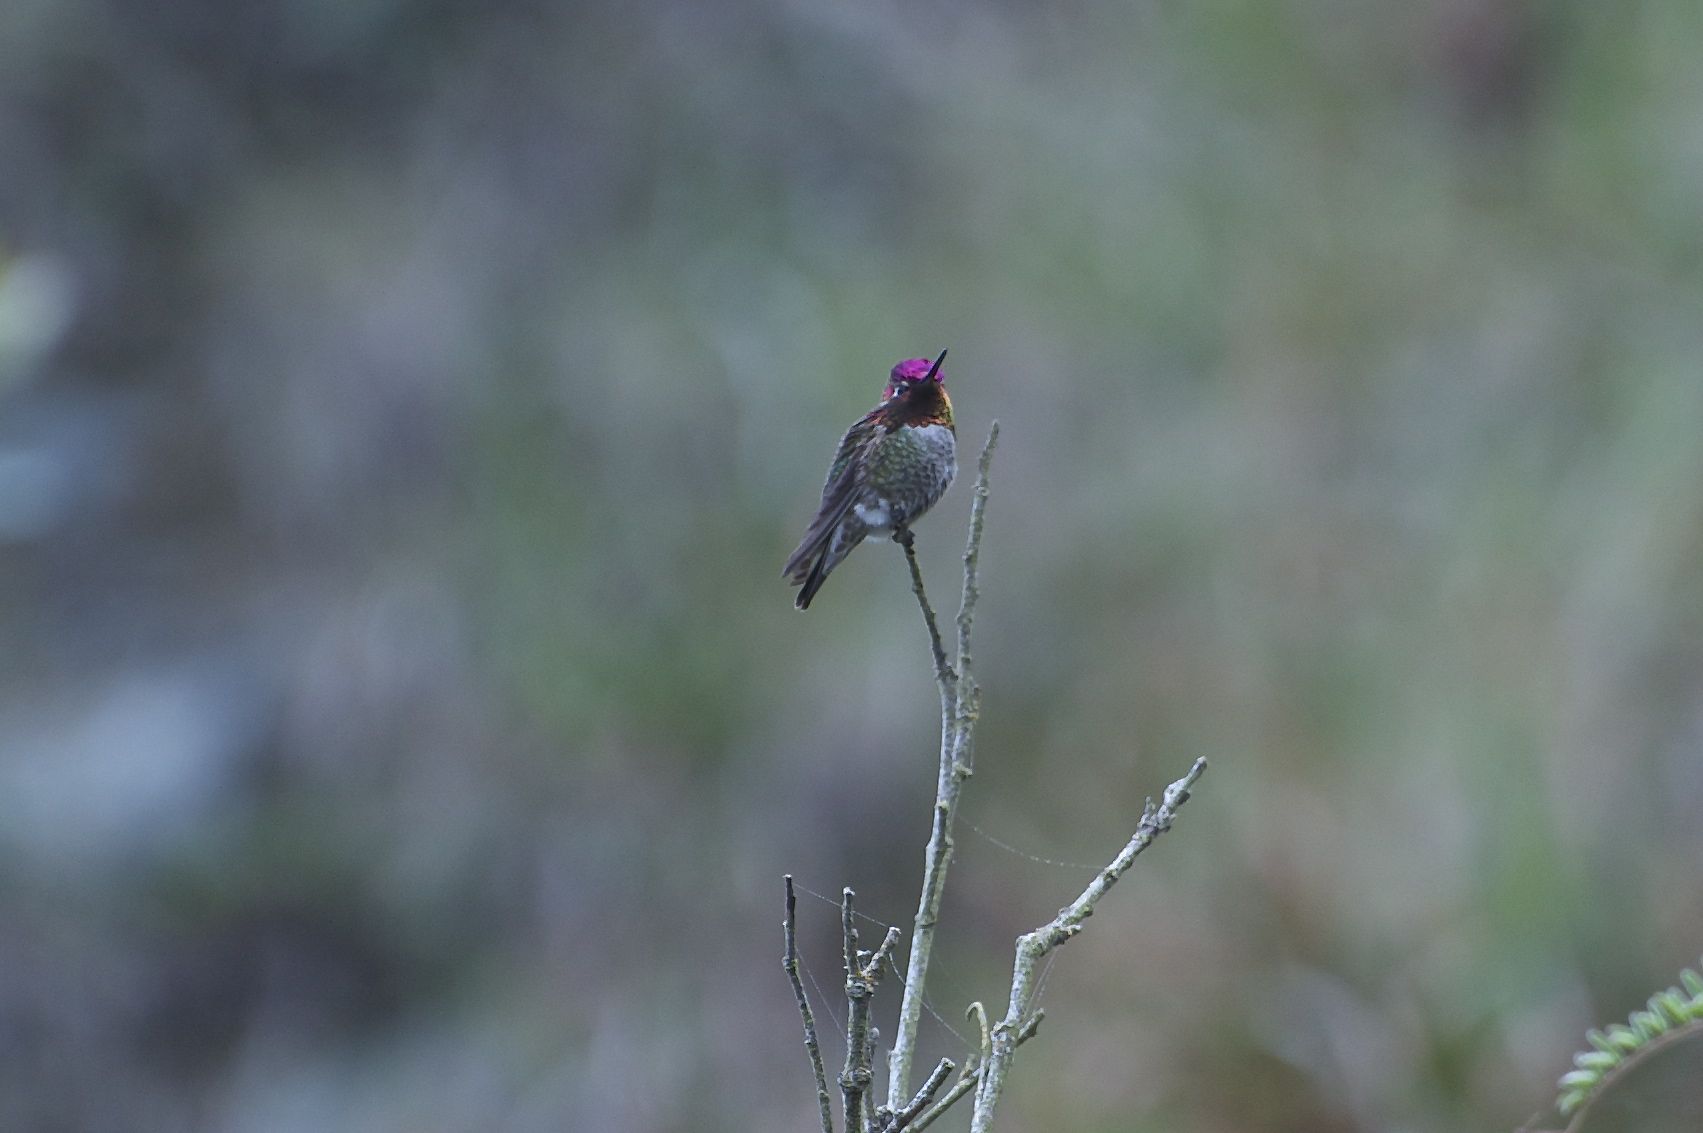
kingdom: Animalia
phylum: Chordata
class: Aves
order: Apodiformes
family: Trochilidae
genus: Calypte
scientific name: Calypte anna
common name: Anna's hummingbird
